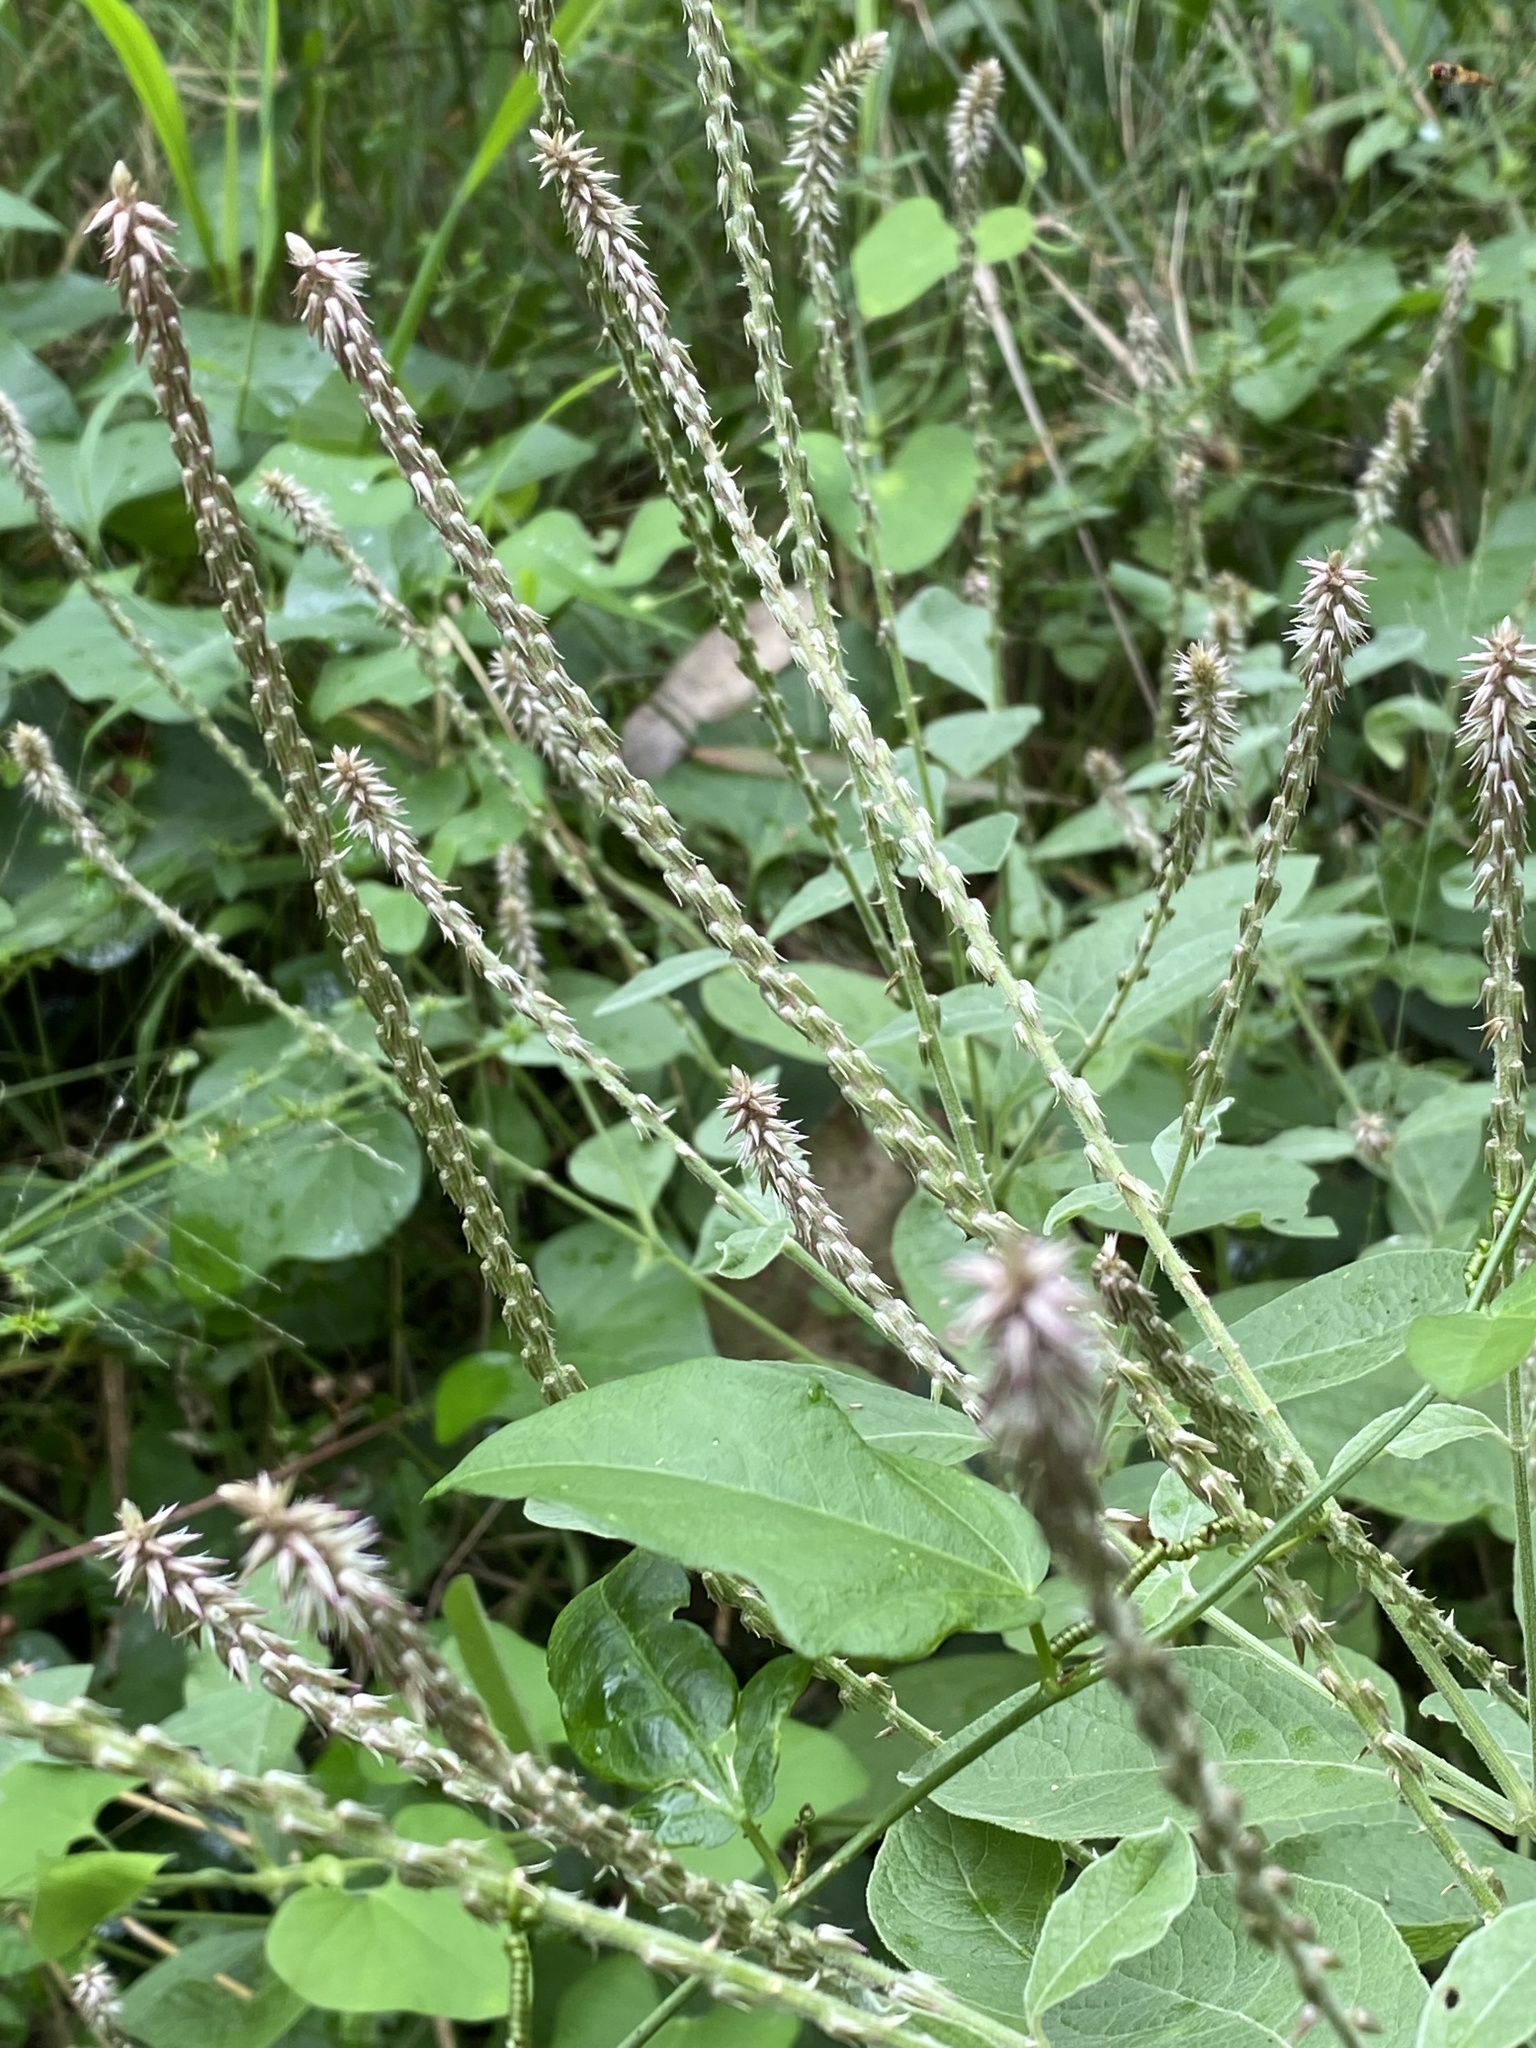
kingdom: Plantae
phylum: Tracheophyta
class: Magnoliopsida
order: Caryophyllales
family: Amaranthaceae
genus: Achyranthes
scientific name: Achyranthes aspera
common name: Devil's horsewhip
